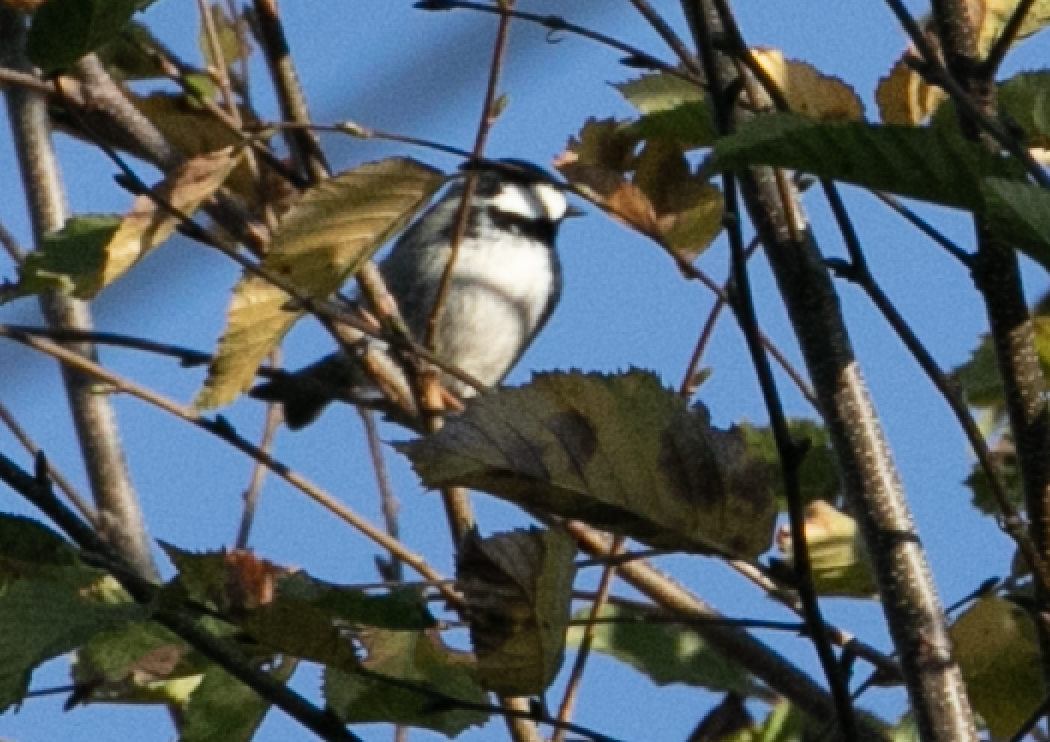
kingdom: Animalia
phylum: Chordata
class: Aves
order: Passeriformes
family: Paridae
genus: Periparus
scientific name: Periparus ater
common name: Coal tit
